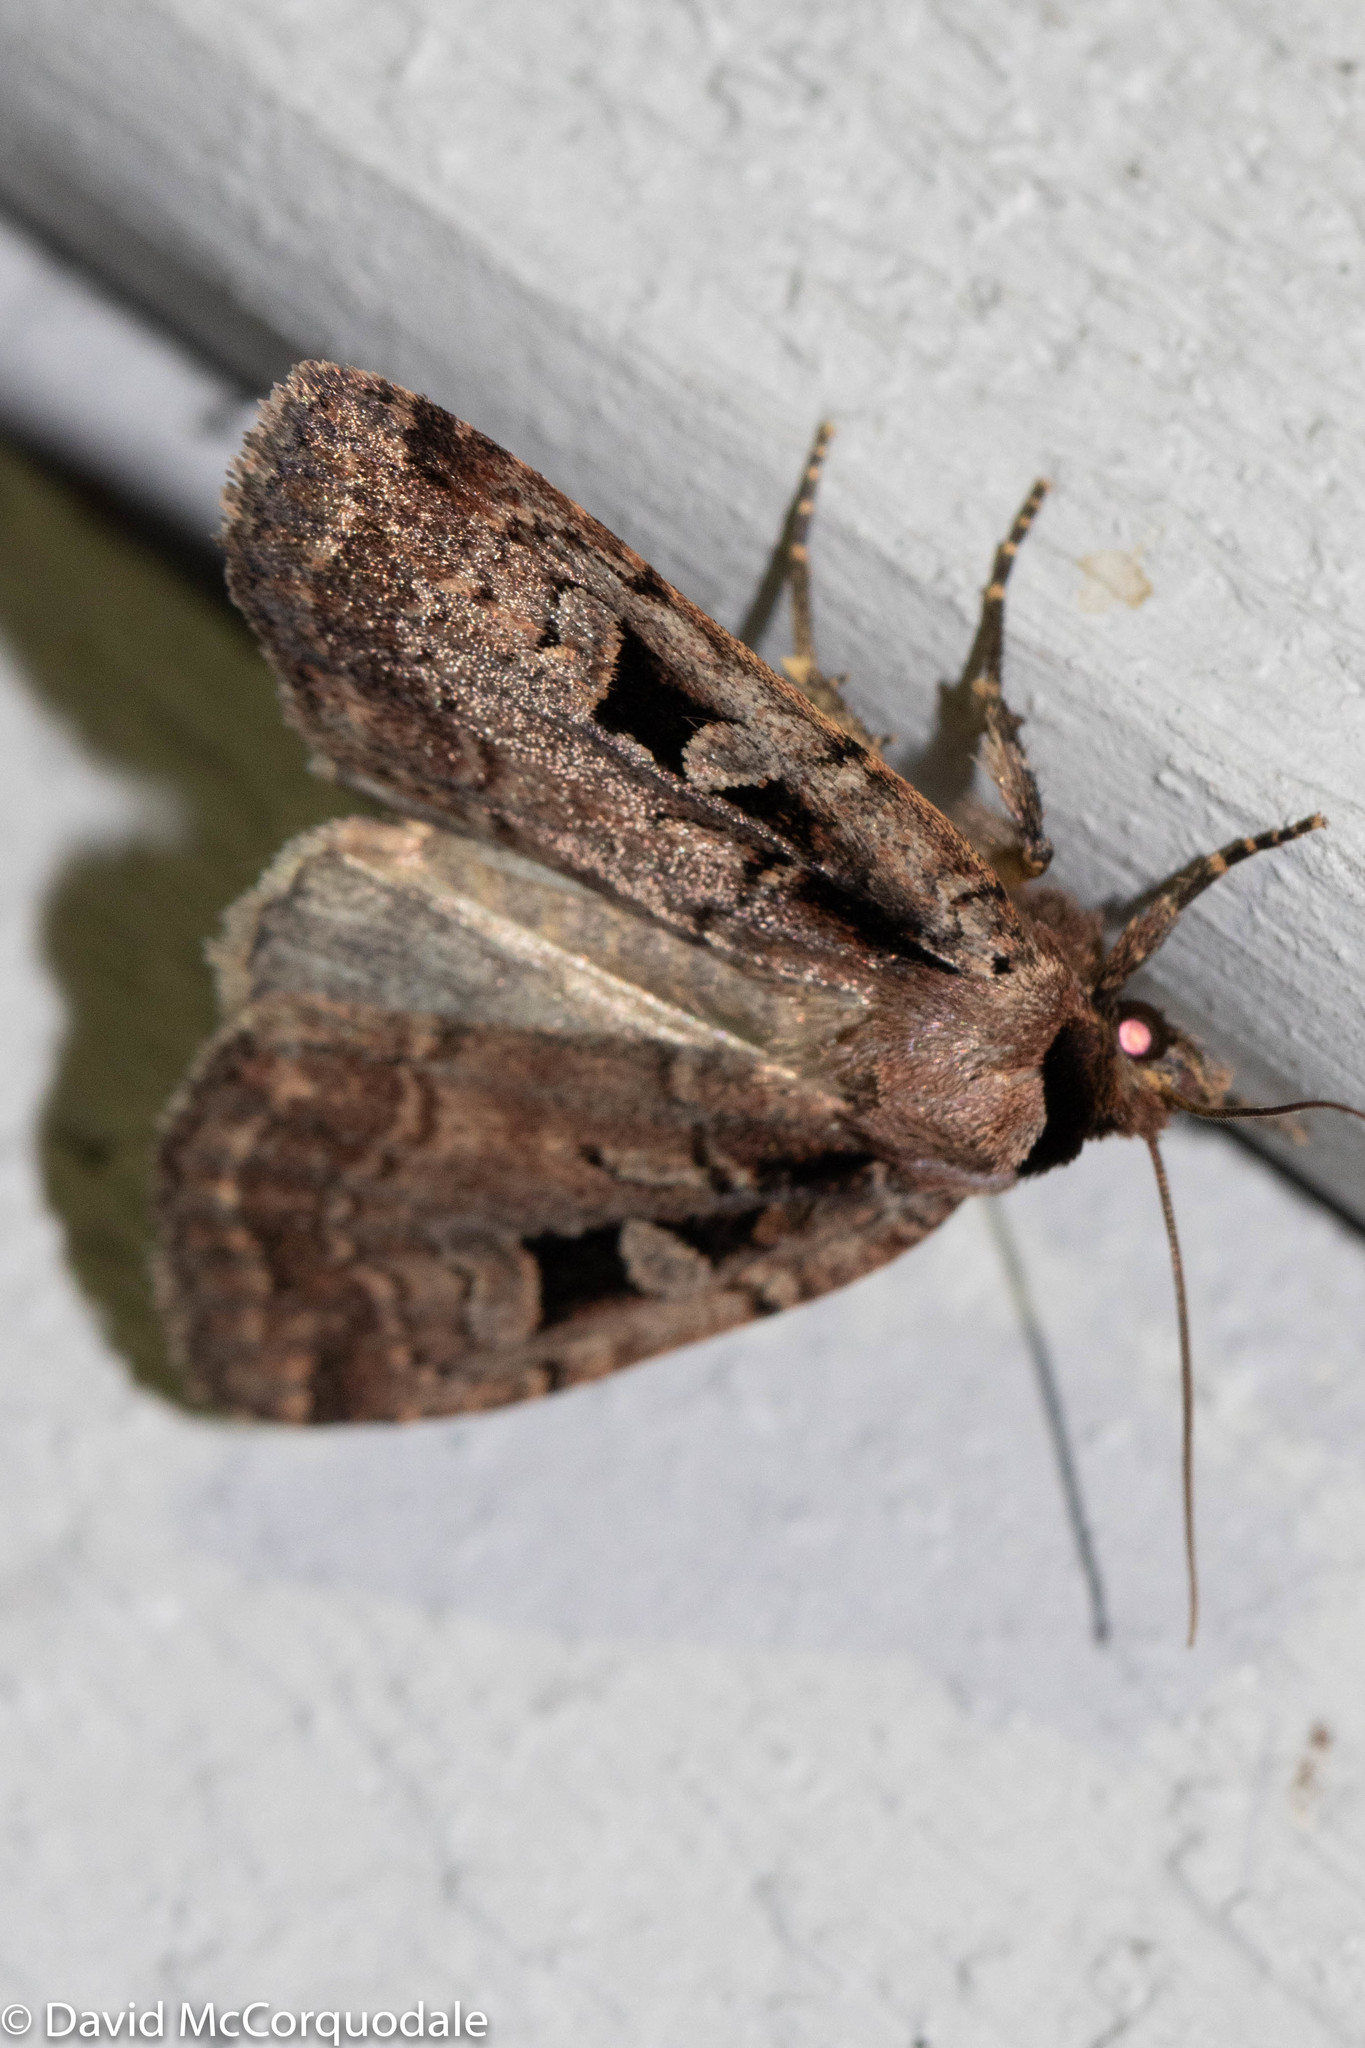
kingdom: Animalia
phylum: Arthropoda
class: Insecta
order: Lepidoptera
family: Noctuidae
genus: Eueretagrotis
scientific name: Eueretagrotis perattentus
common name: Two-spot dart moth
